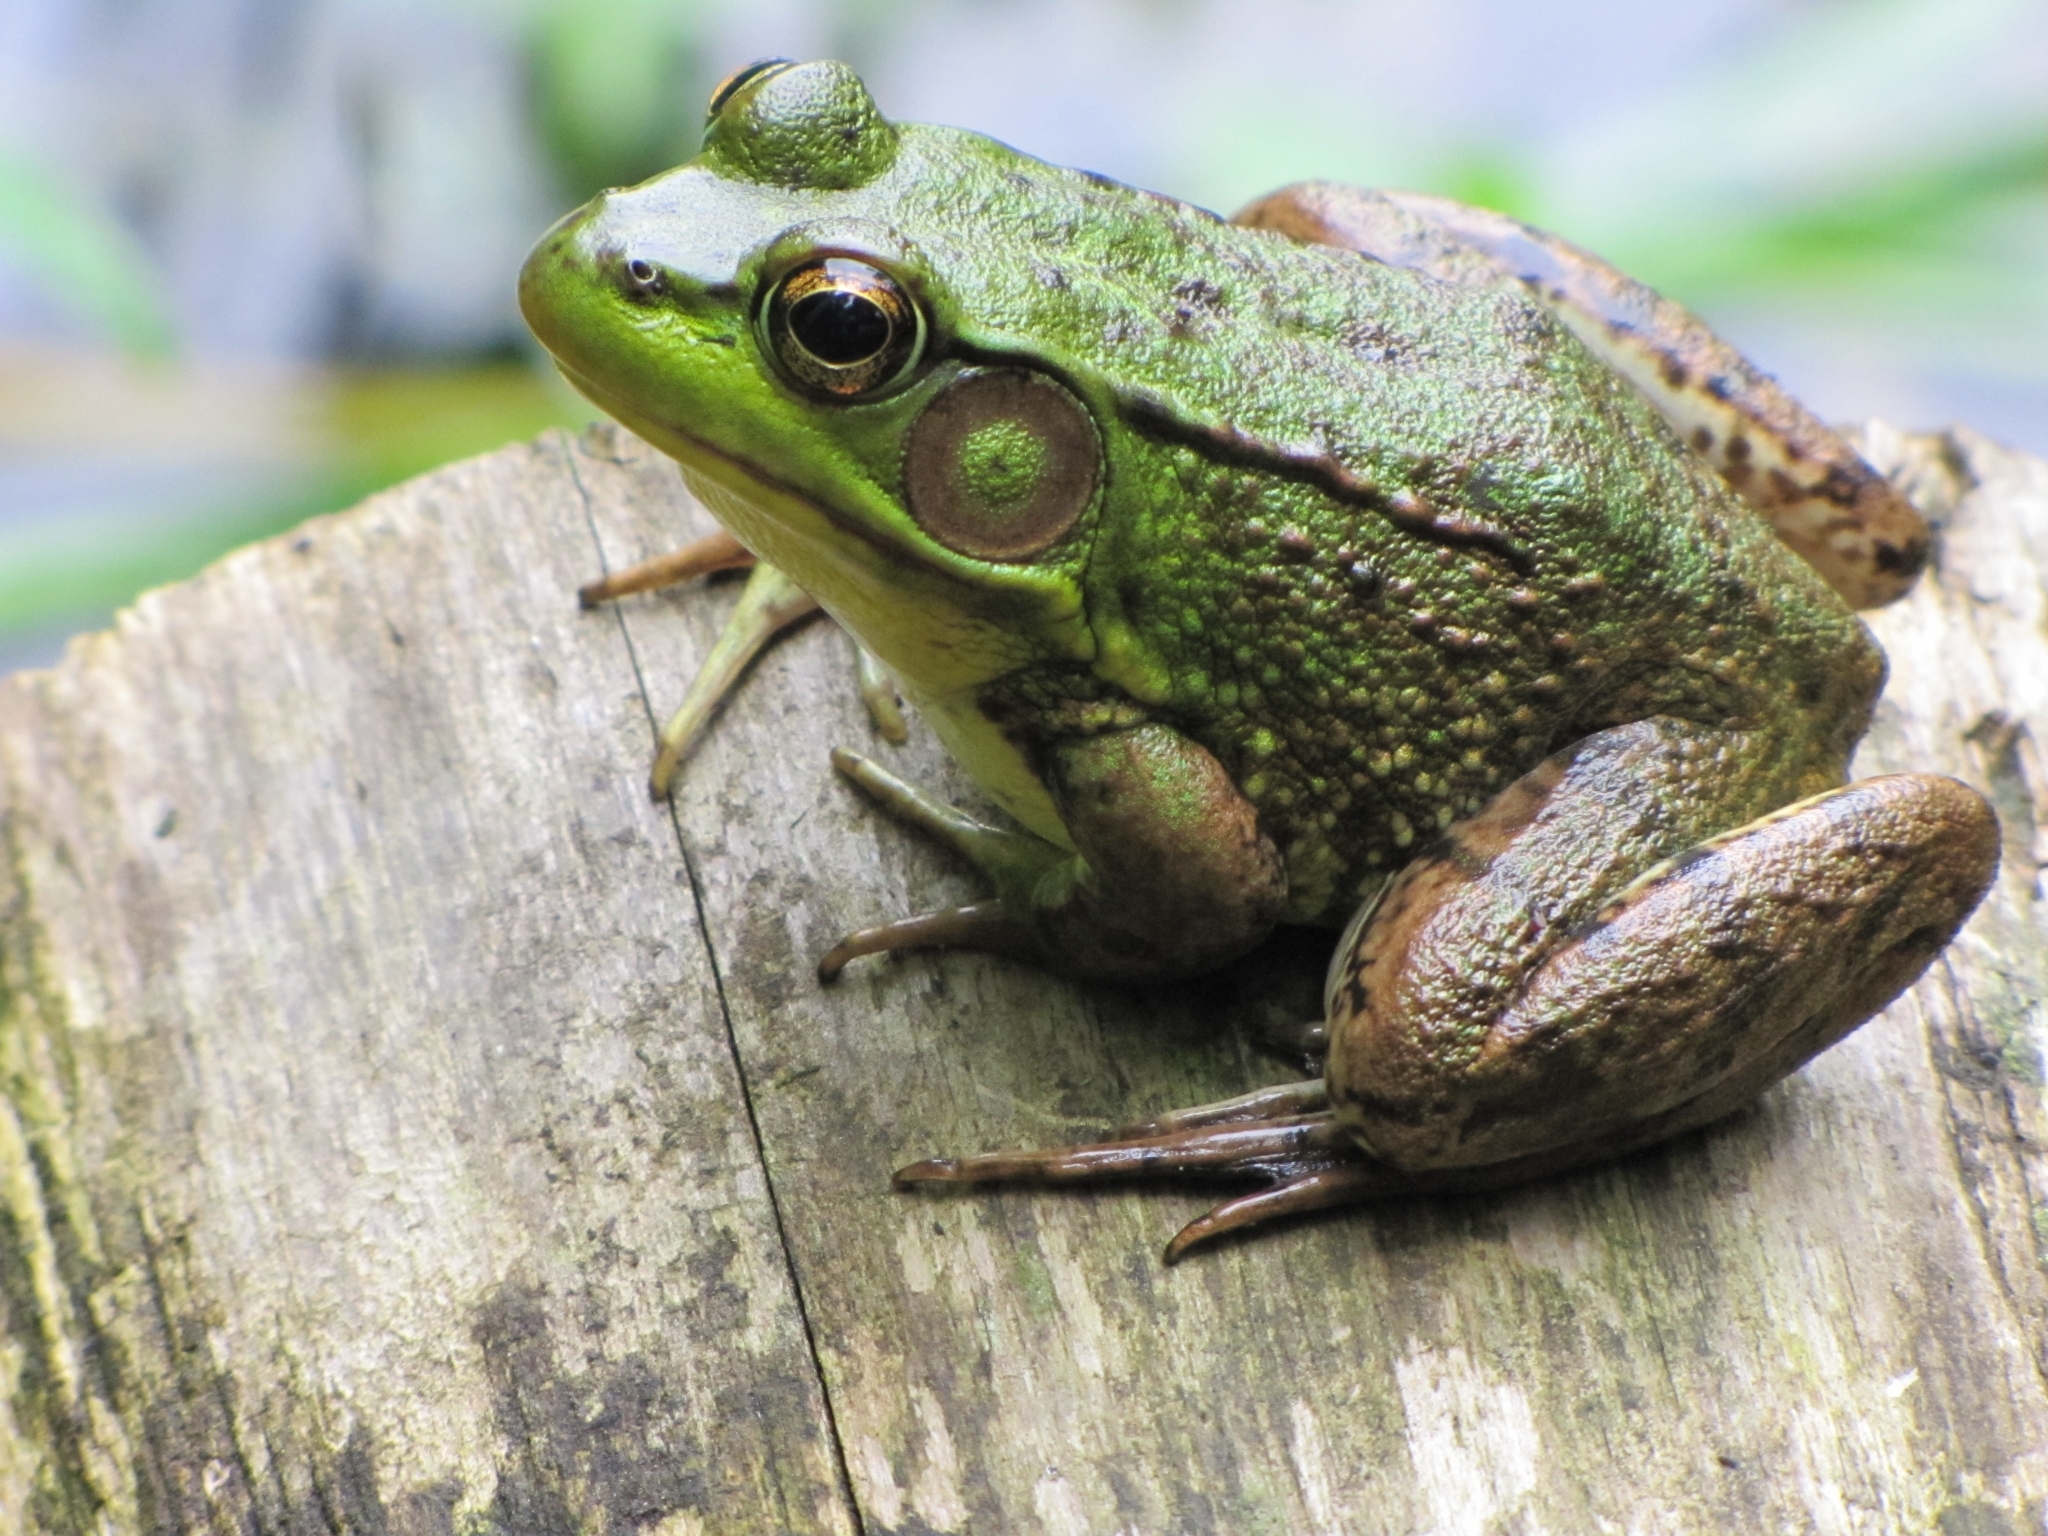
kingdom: Animalia
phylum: Chordata
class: Amphibia
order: Anura
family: Ranidae
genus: Lithobates
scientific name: Lithobates clamitans
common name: Green frog
